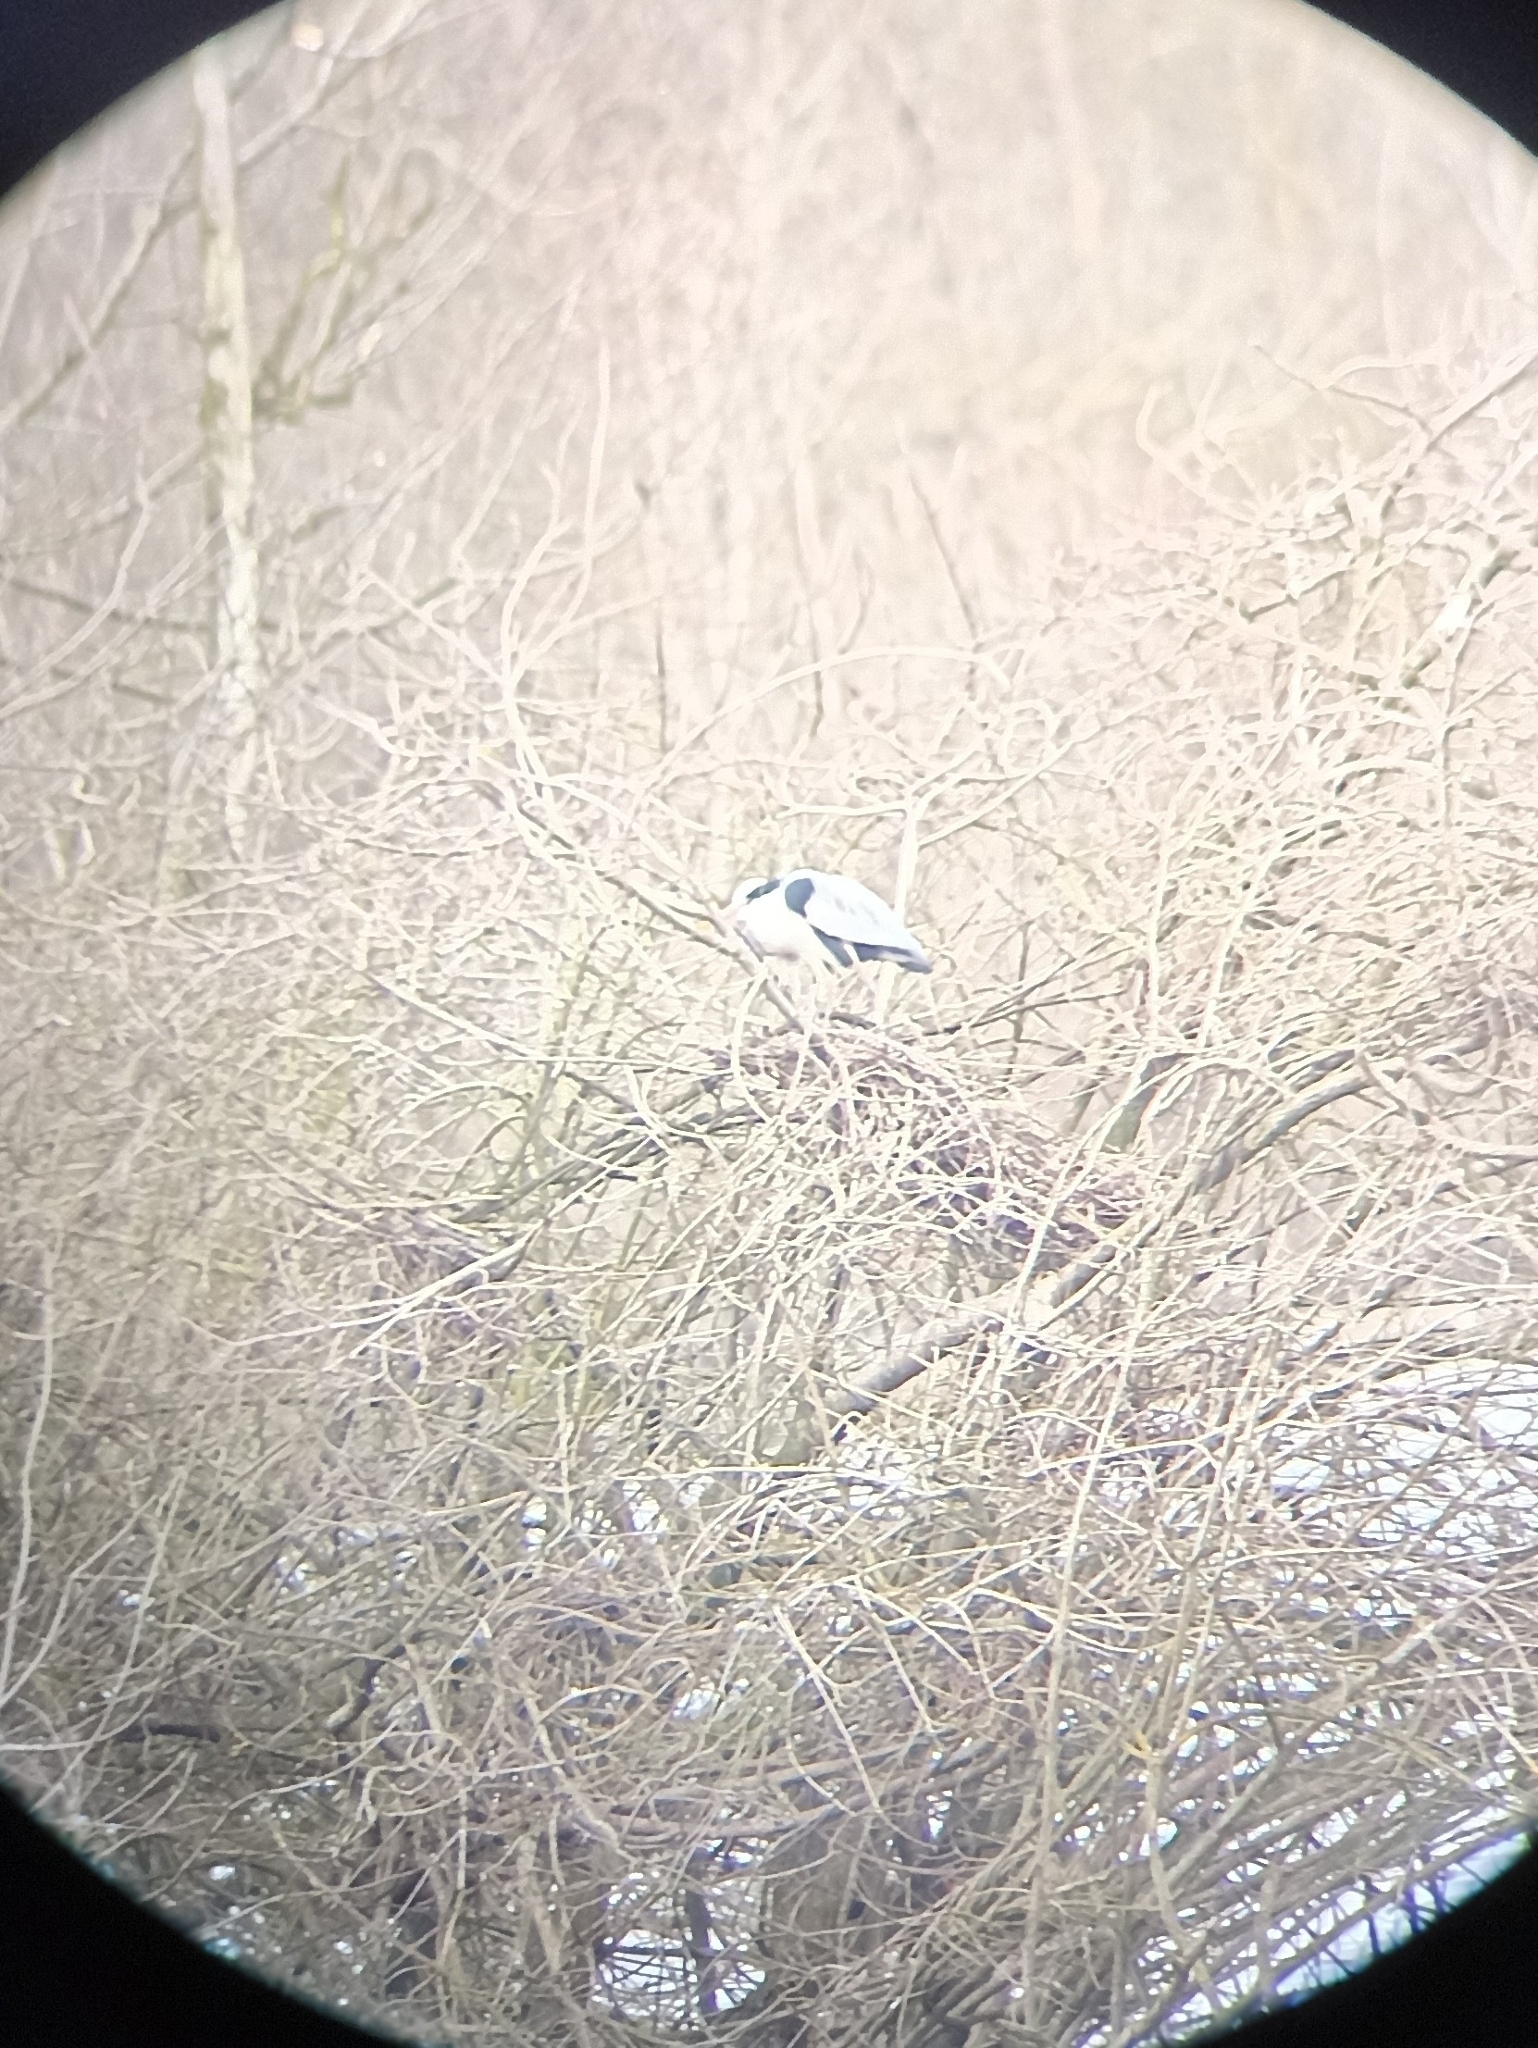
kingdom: Animalia
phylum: Chordata
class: Aves
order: Pelecaniformes
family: Ardeidae
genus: Ardea
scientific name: Ardea cinerea
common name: Grey heron
